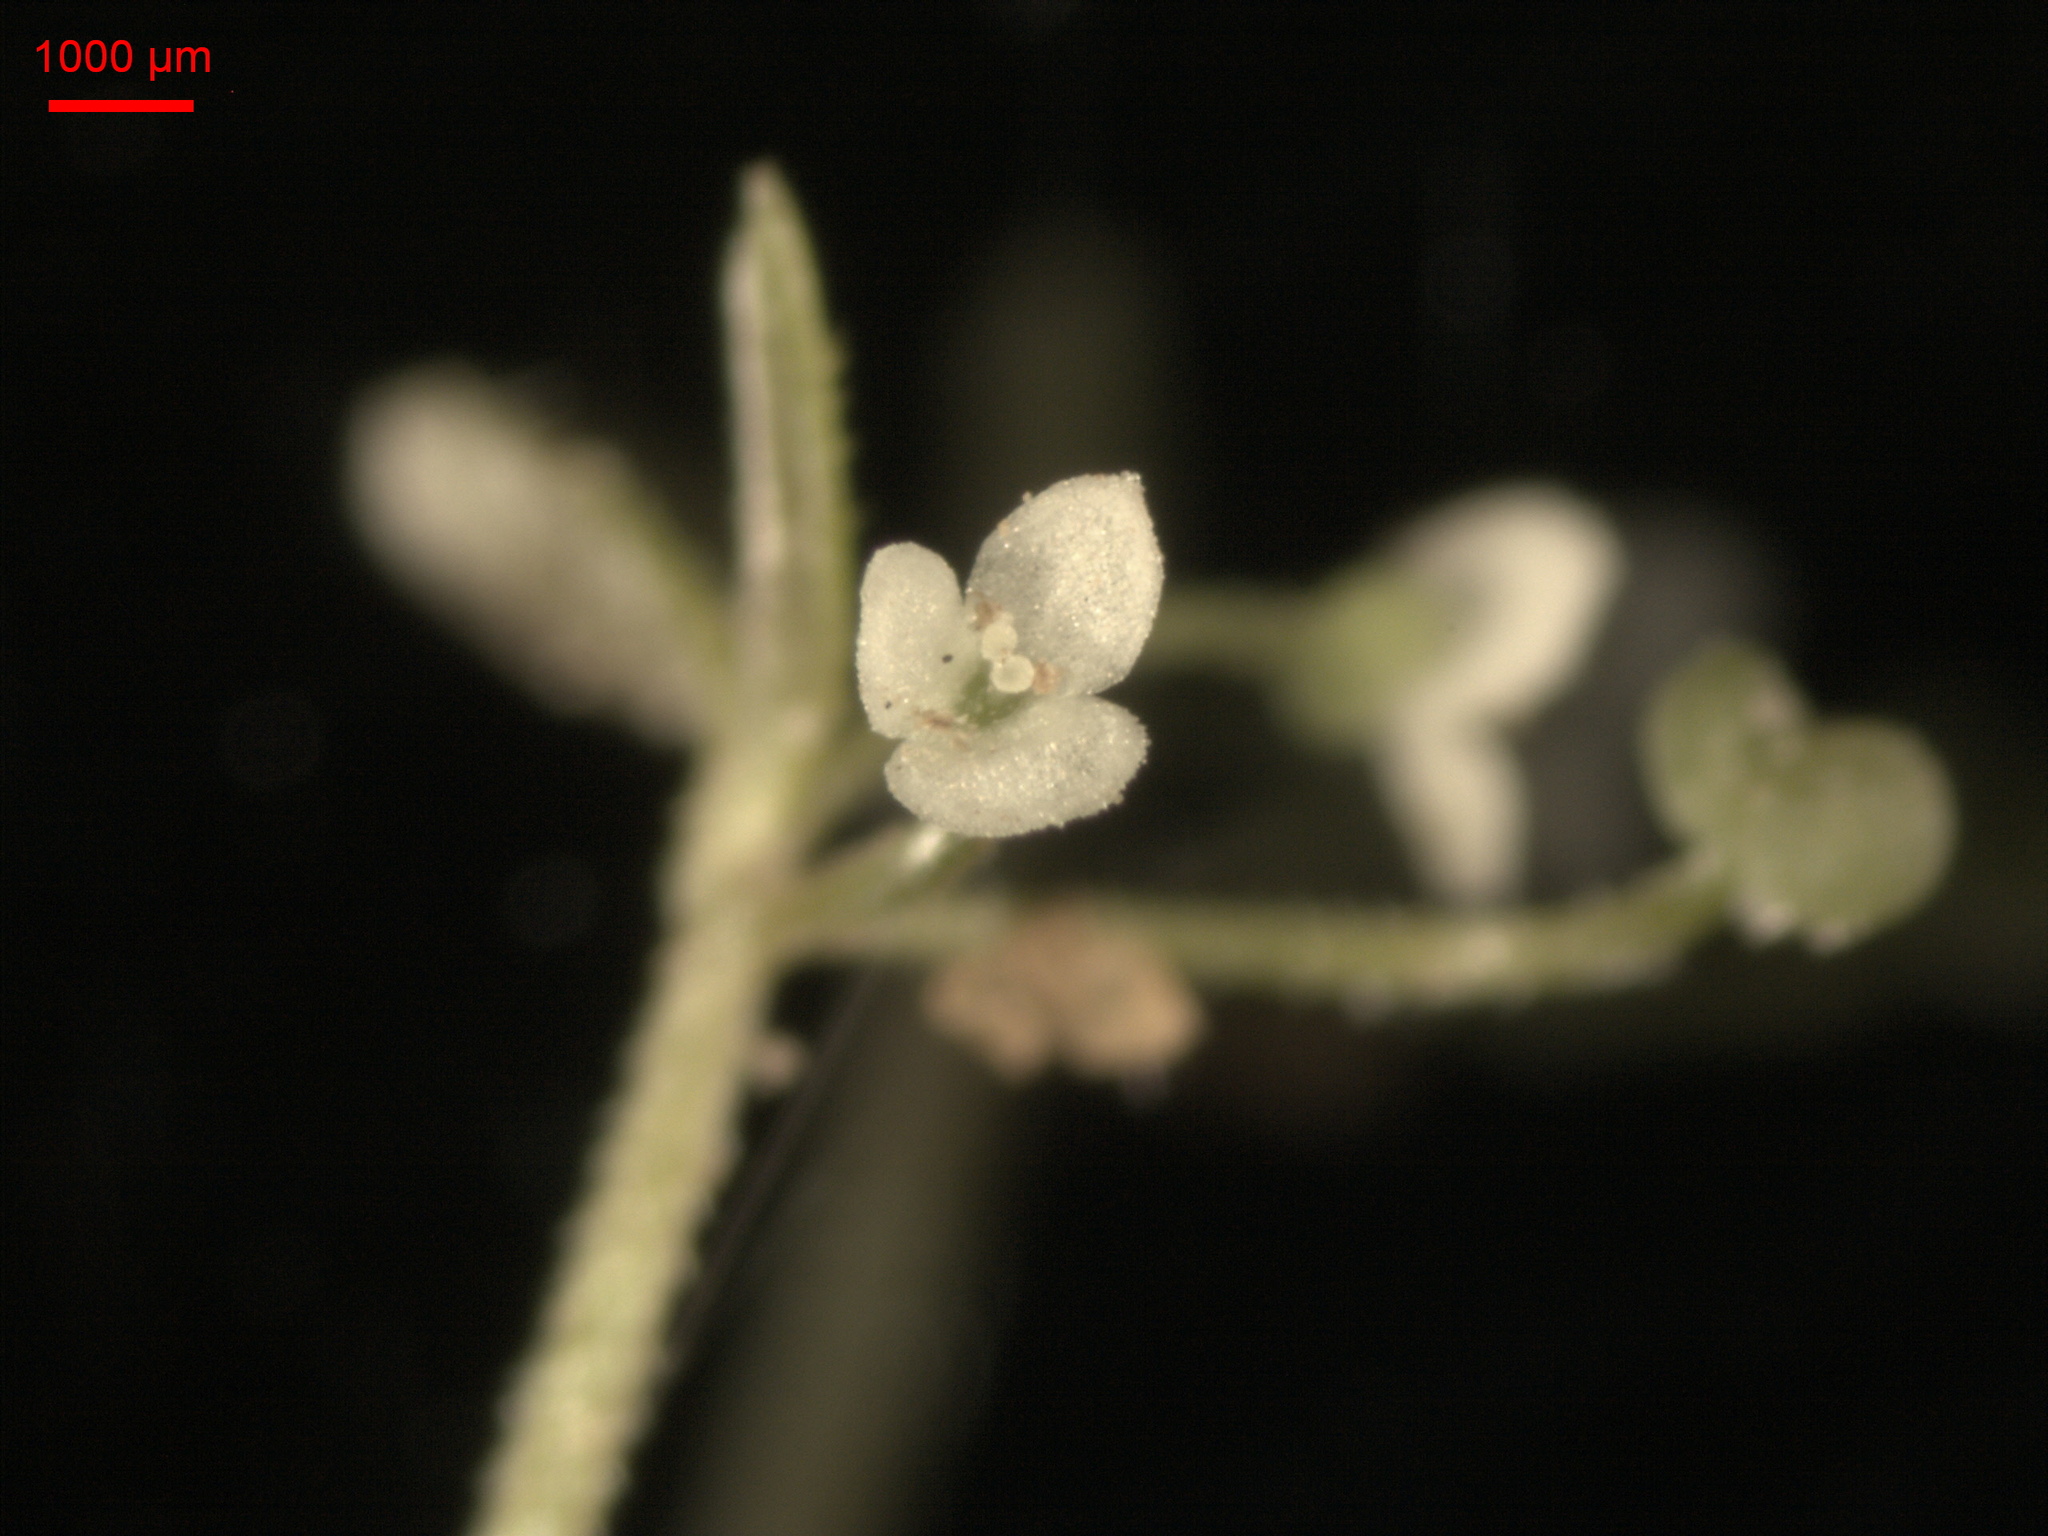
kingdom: Plantae
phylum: Tracheophyta
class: Magnoliopsida
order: Gentianales
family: Rubiaceae
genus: Galium
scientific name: Galium trifidum
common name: Small bedstraw
